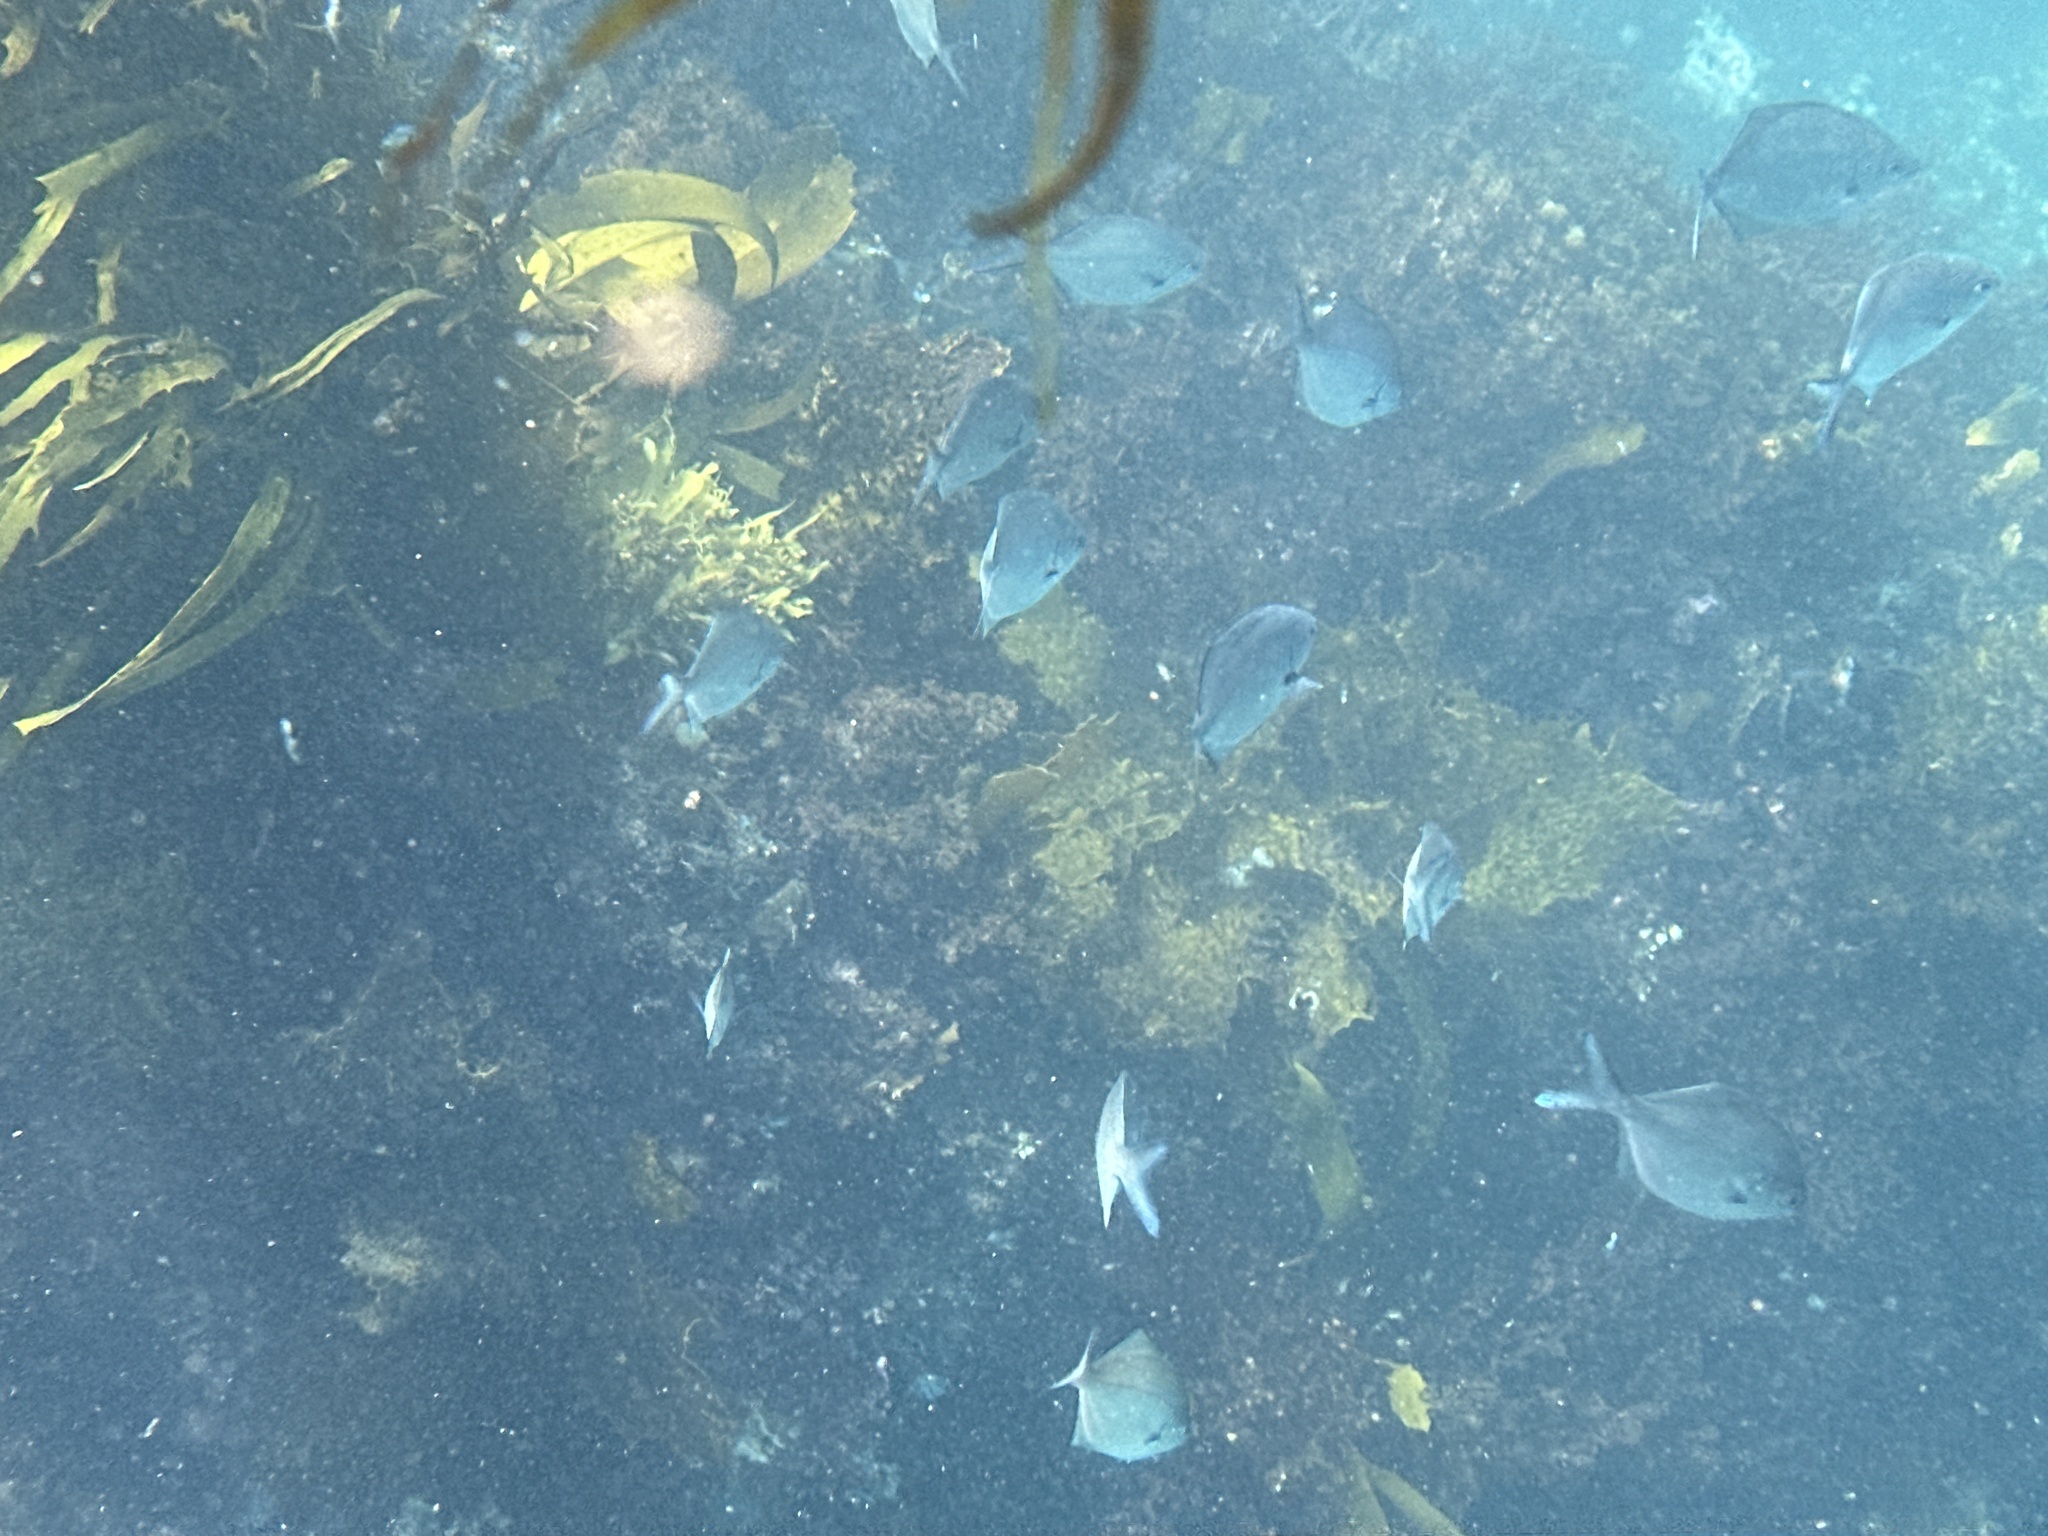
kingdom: Animalia
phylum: Chordata
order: Perciformes
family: Kyphosidae
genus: Scorpis
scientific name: Scorpis lineolata
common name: Sweep
